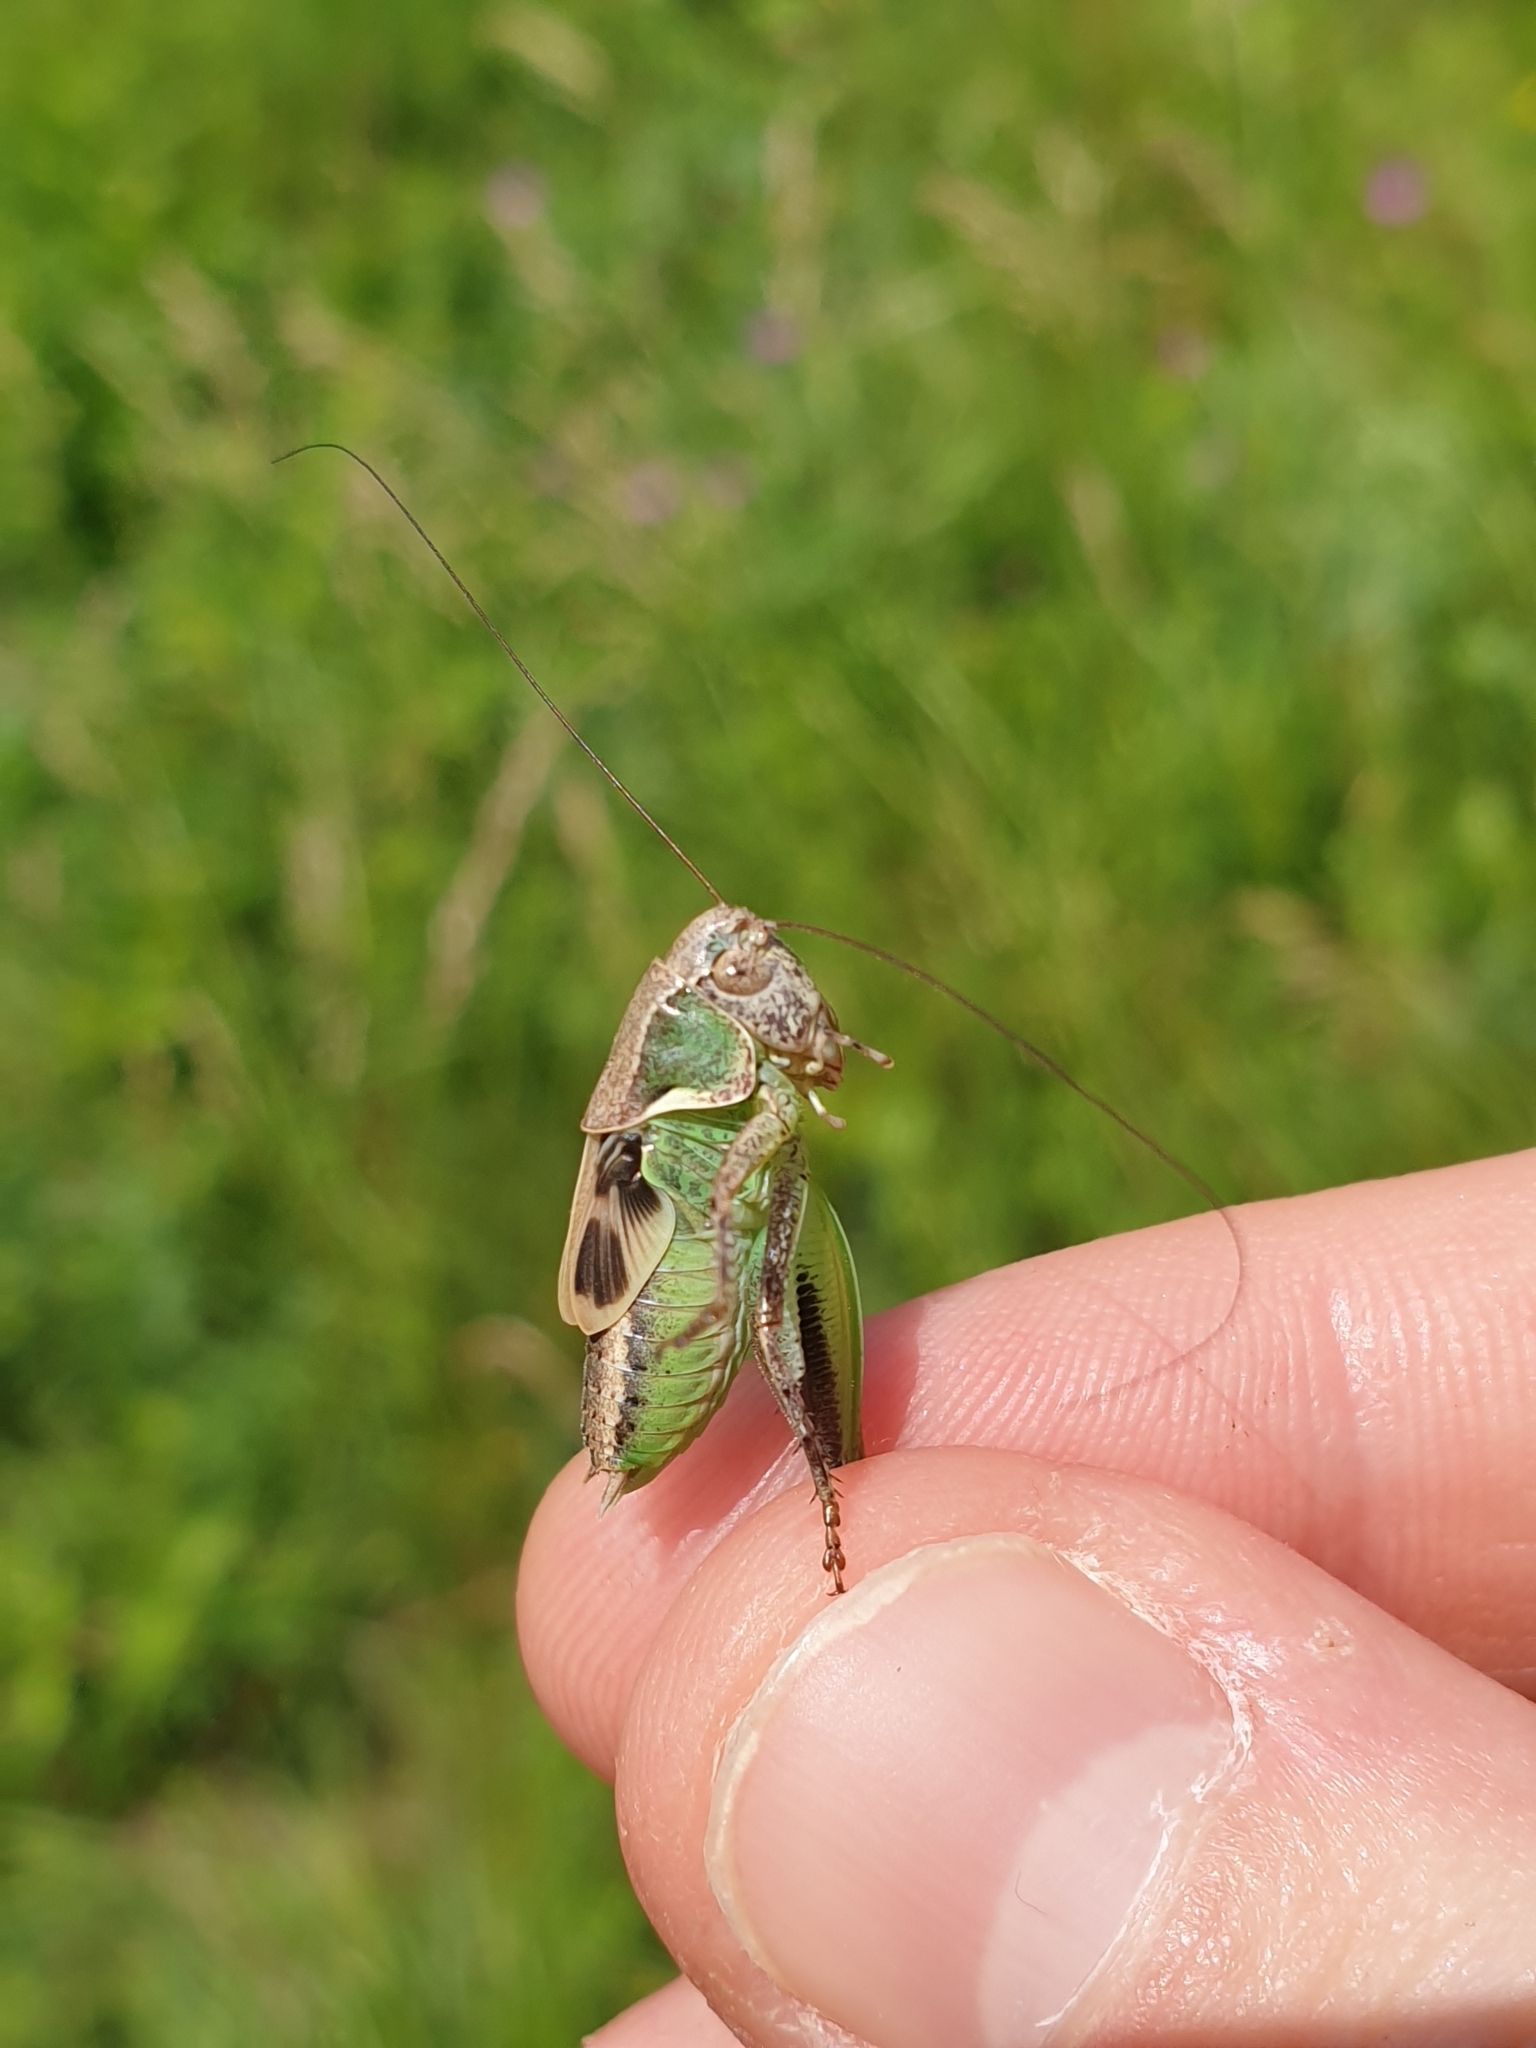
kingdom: Animalia
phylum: Arthropoda
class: Insecta
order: Orthoptera
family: Tettigoniidae
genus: Platycleis
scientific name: Platycleis grisea
